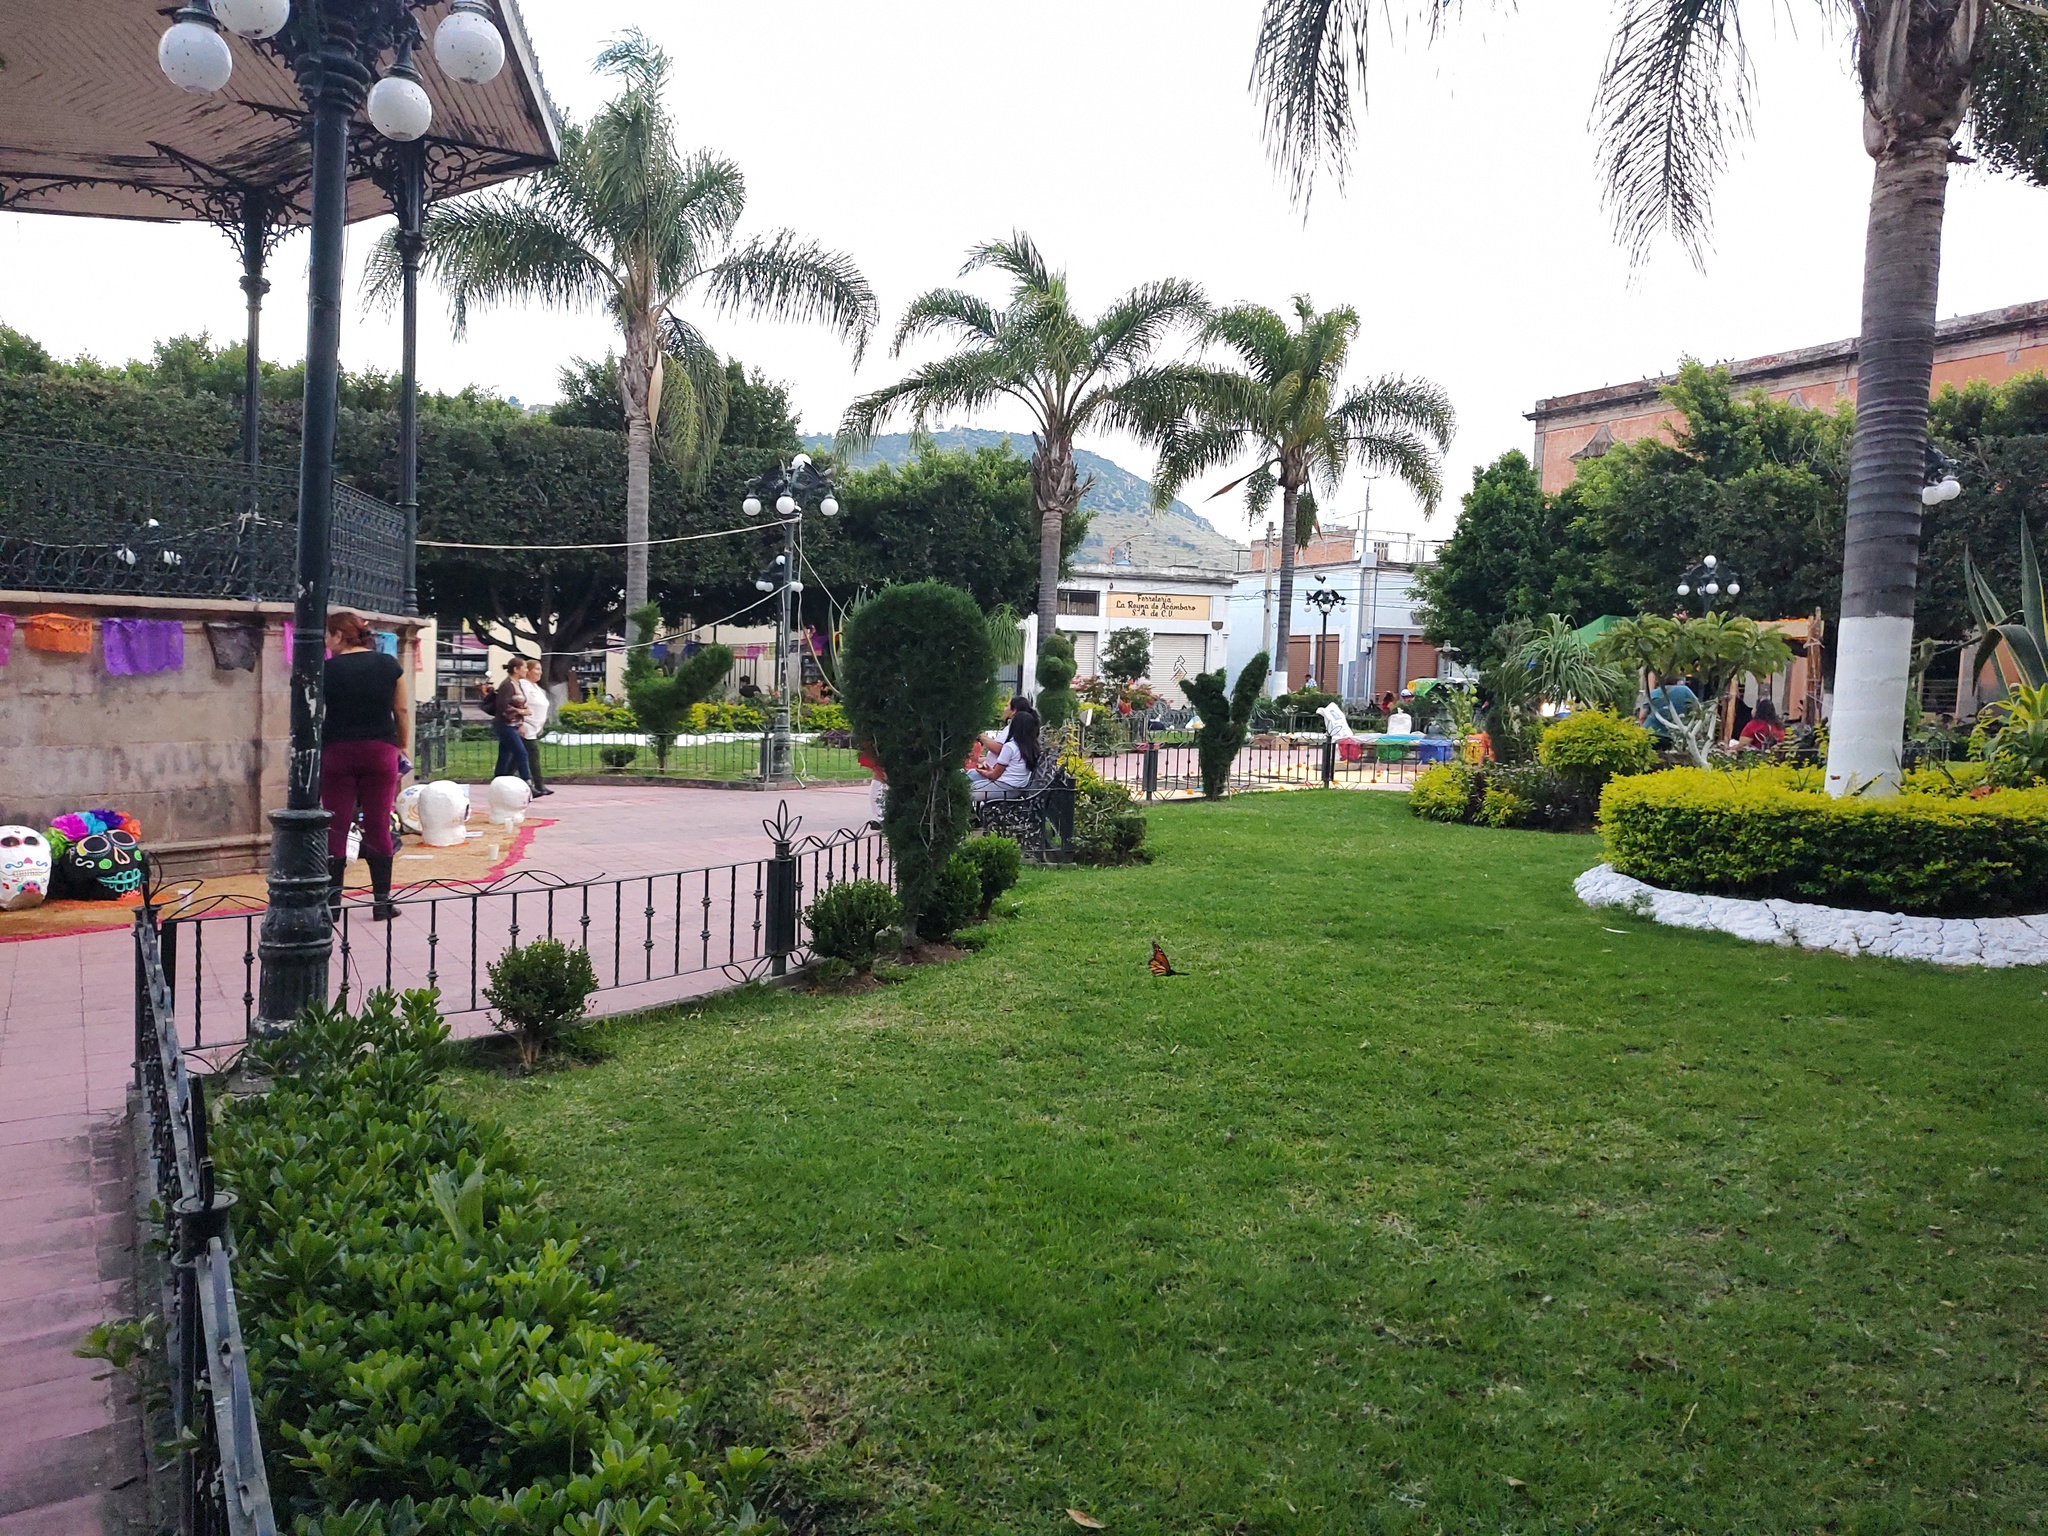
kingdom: Animalia
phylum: Arthropoda
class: Insecta
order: Lepidoptera
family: Nymphalidae
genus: Danaus
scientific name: Danaus plexippus
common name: Monarch
